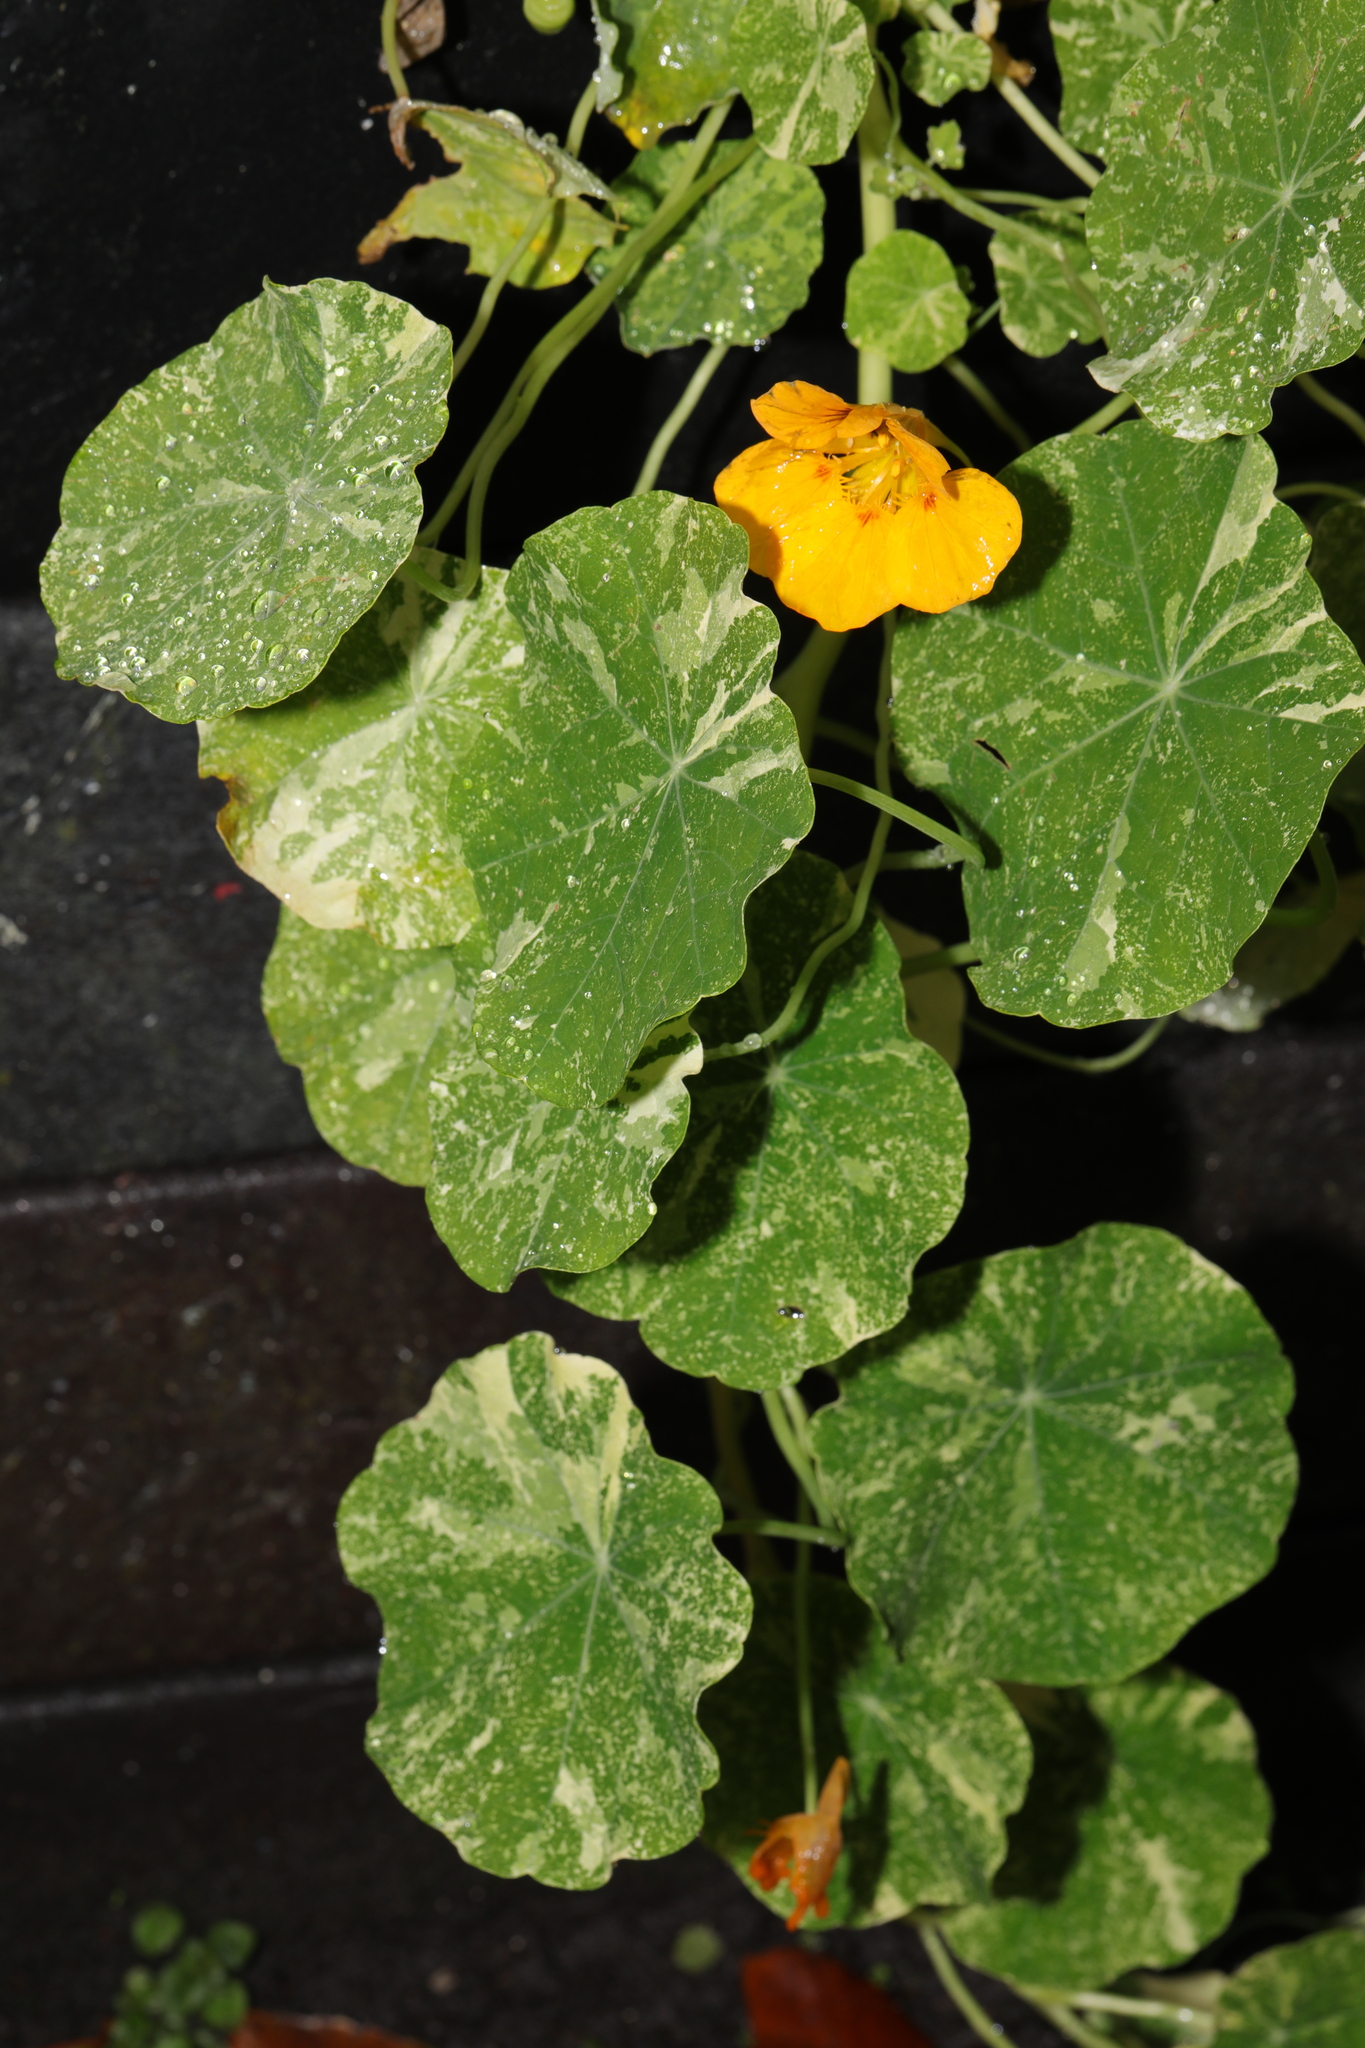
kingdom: Plantae
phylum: Tracheophyta
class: Magnoliopsida
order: Brassicales
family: Tropaeolaceae
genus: Tropaeolum
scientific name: Tropaeolum majus
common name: Nasturtium
